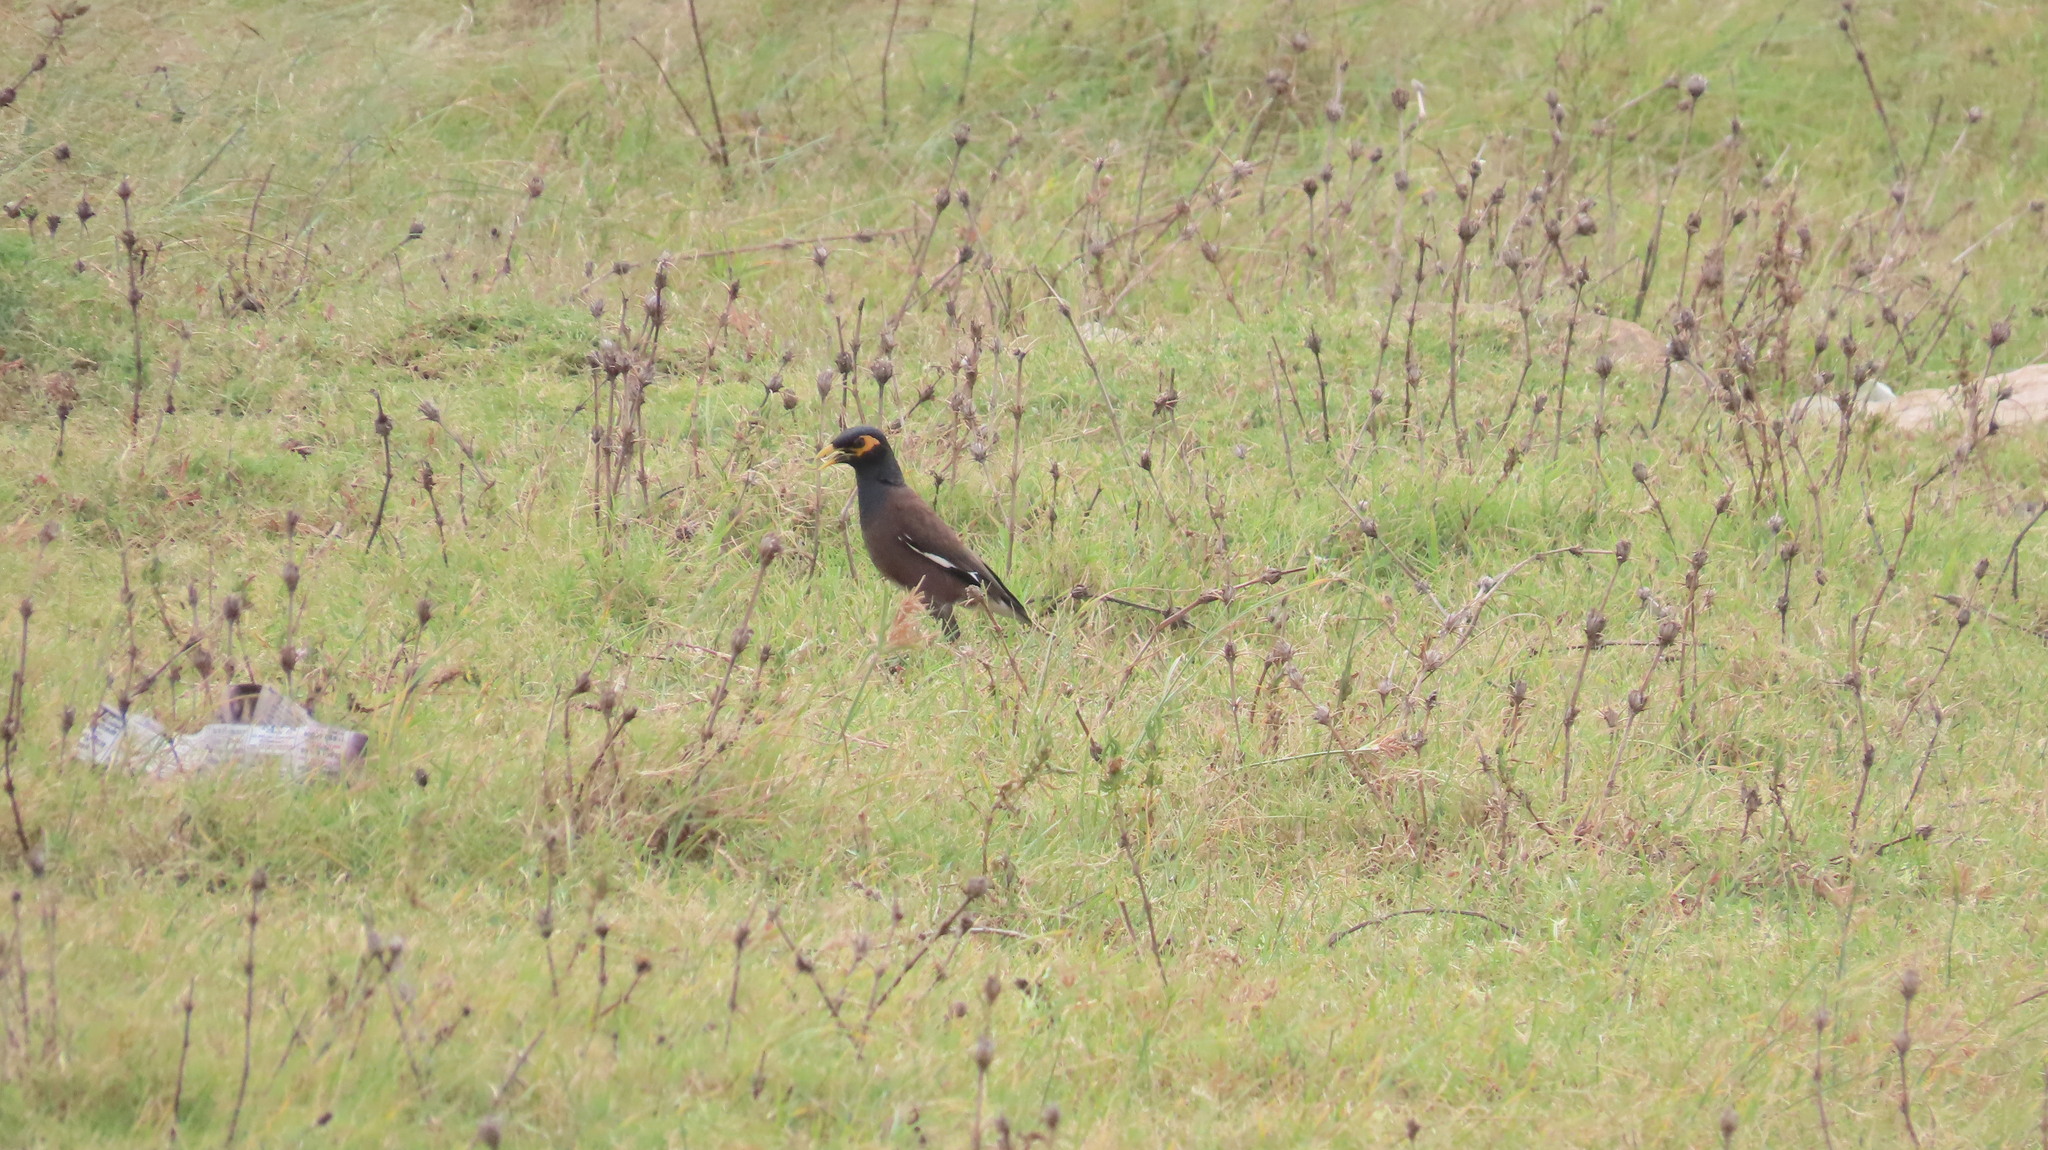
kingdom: Animalia
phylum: Chordata
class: Aves
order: Passeriformes
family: Sturnidae
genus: Acridotheres
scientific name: Acridotheres tristis
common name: Common myna
